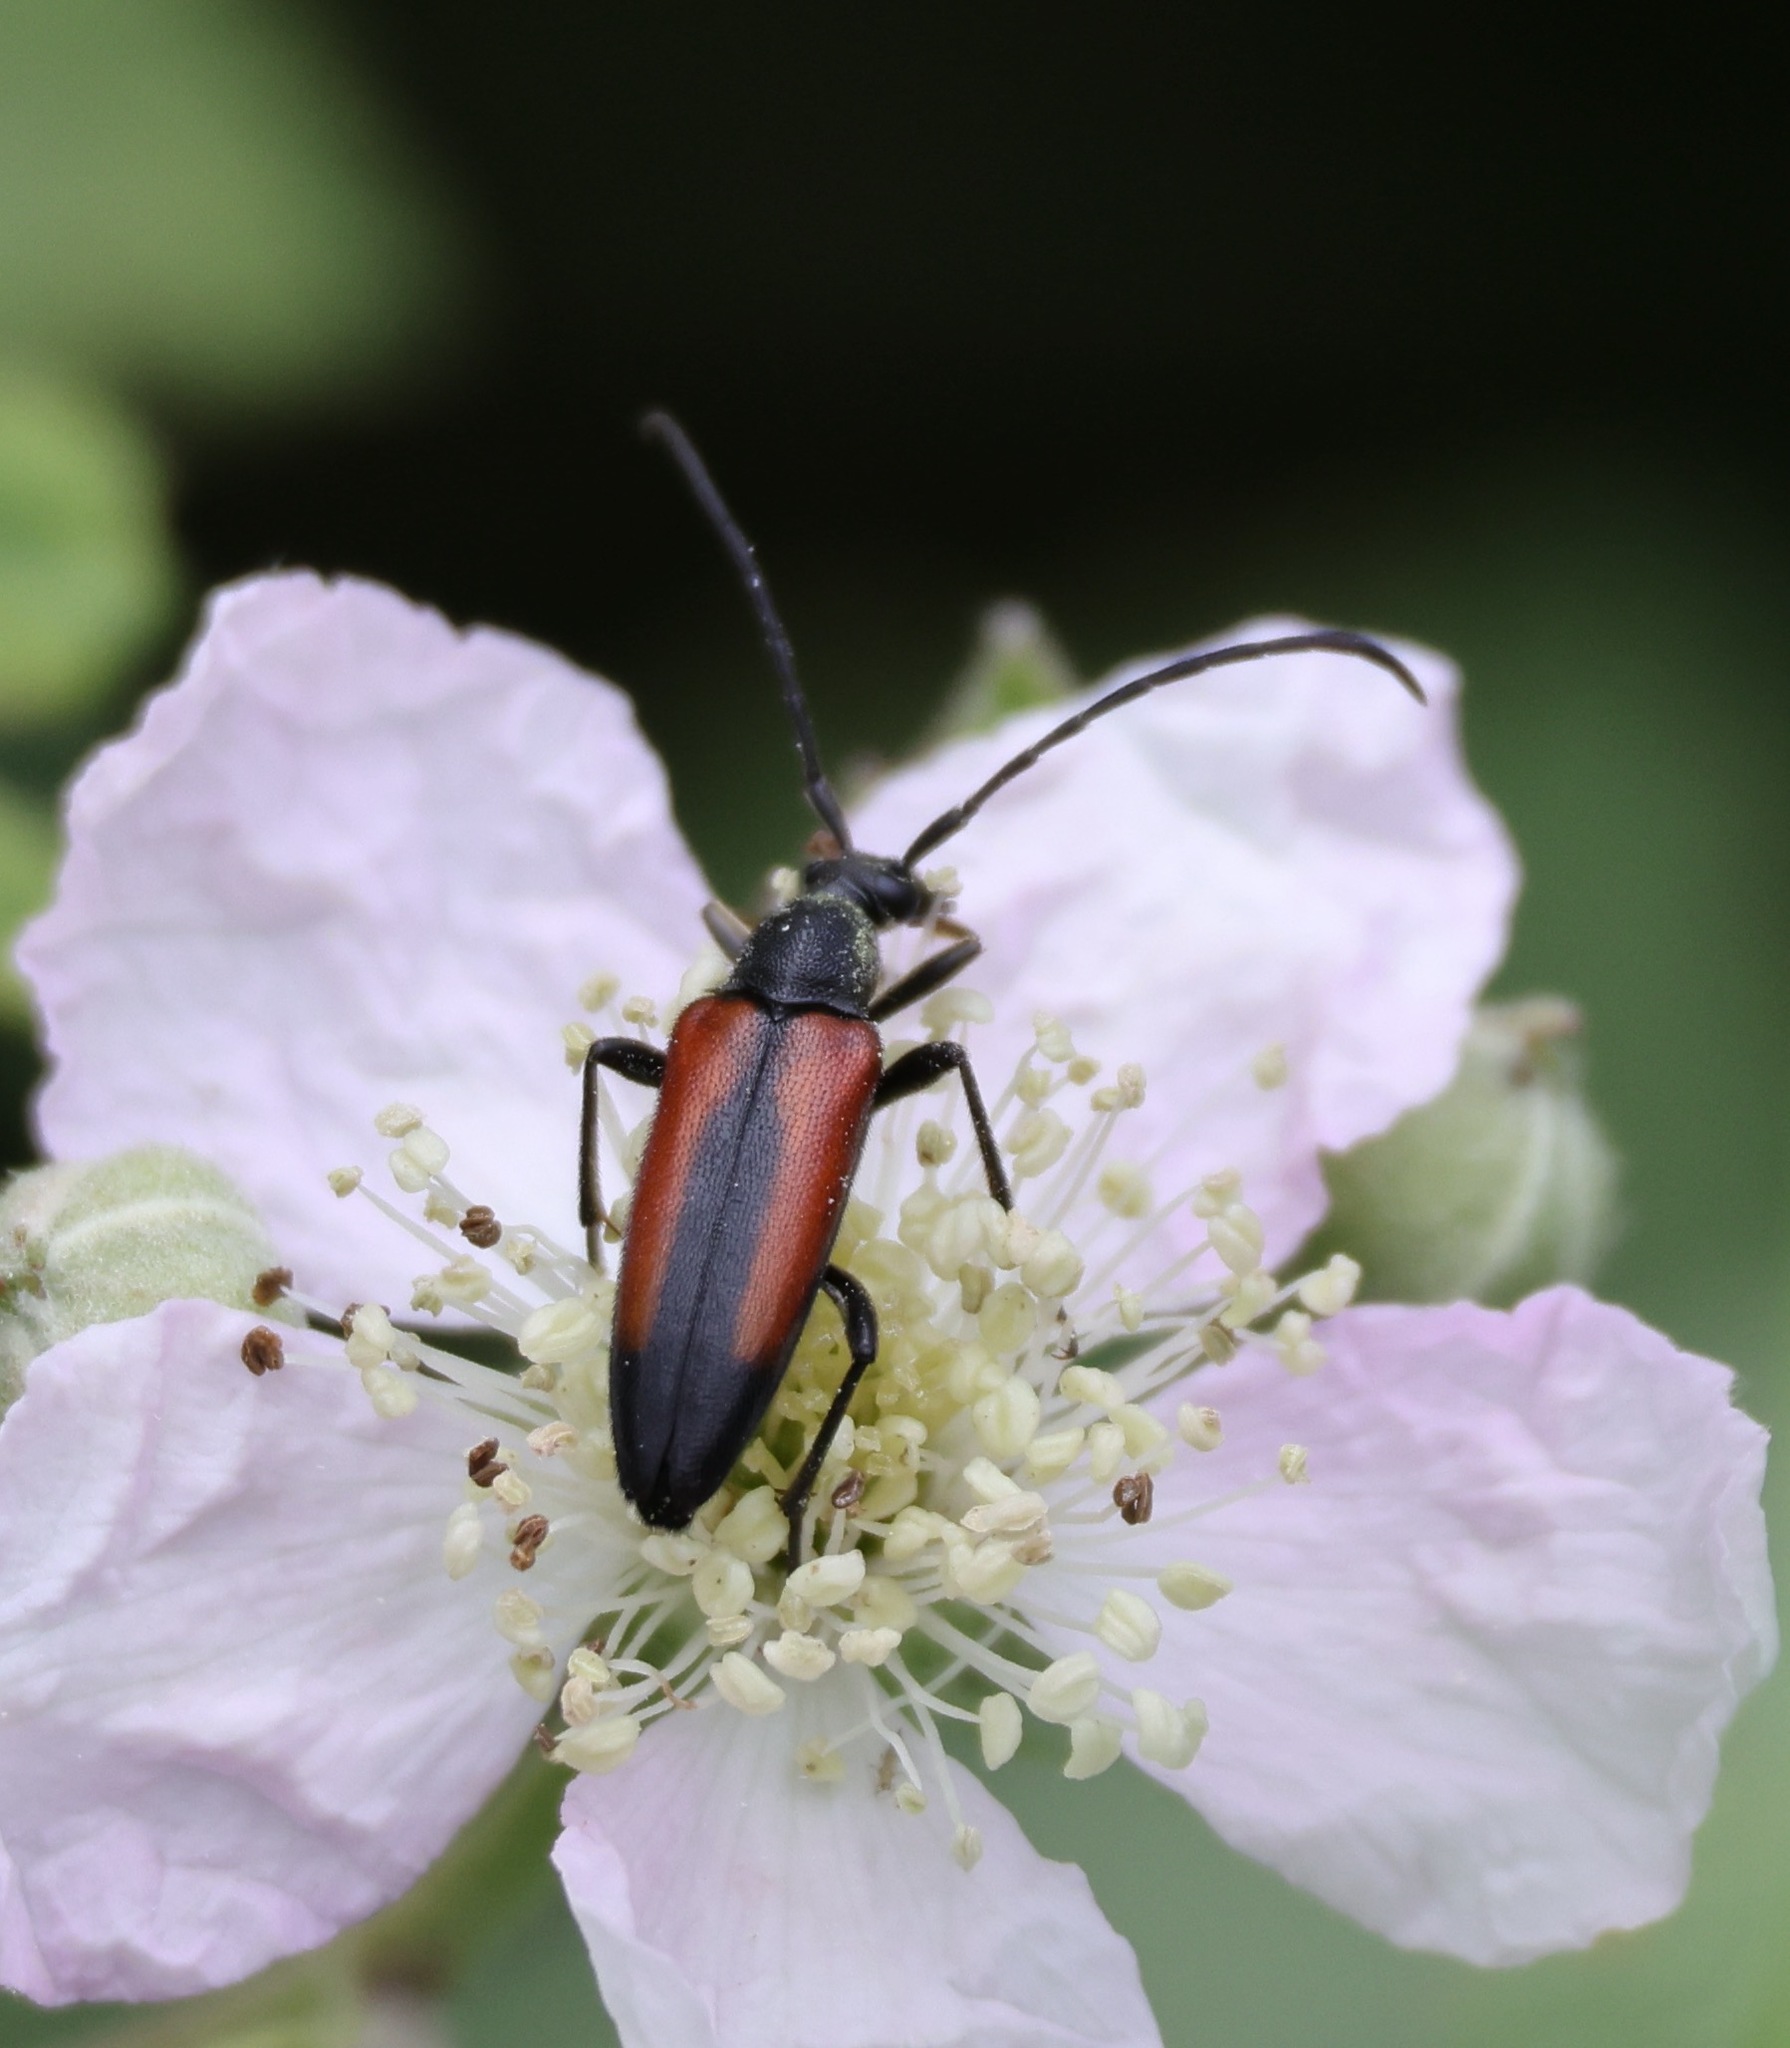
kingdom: Animalia
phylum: Arthropoda
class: Insecta
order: Coleoptera
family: Cerambycidae
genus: Stenurella
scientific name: Stenurella melanura
